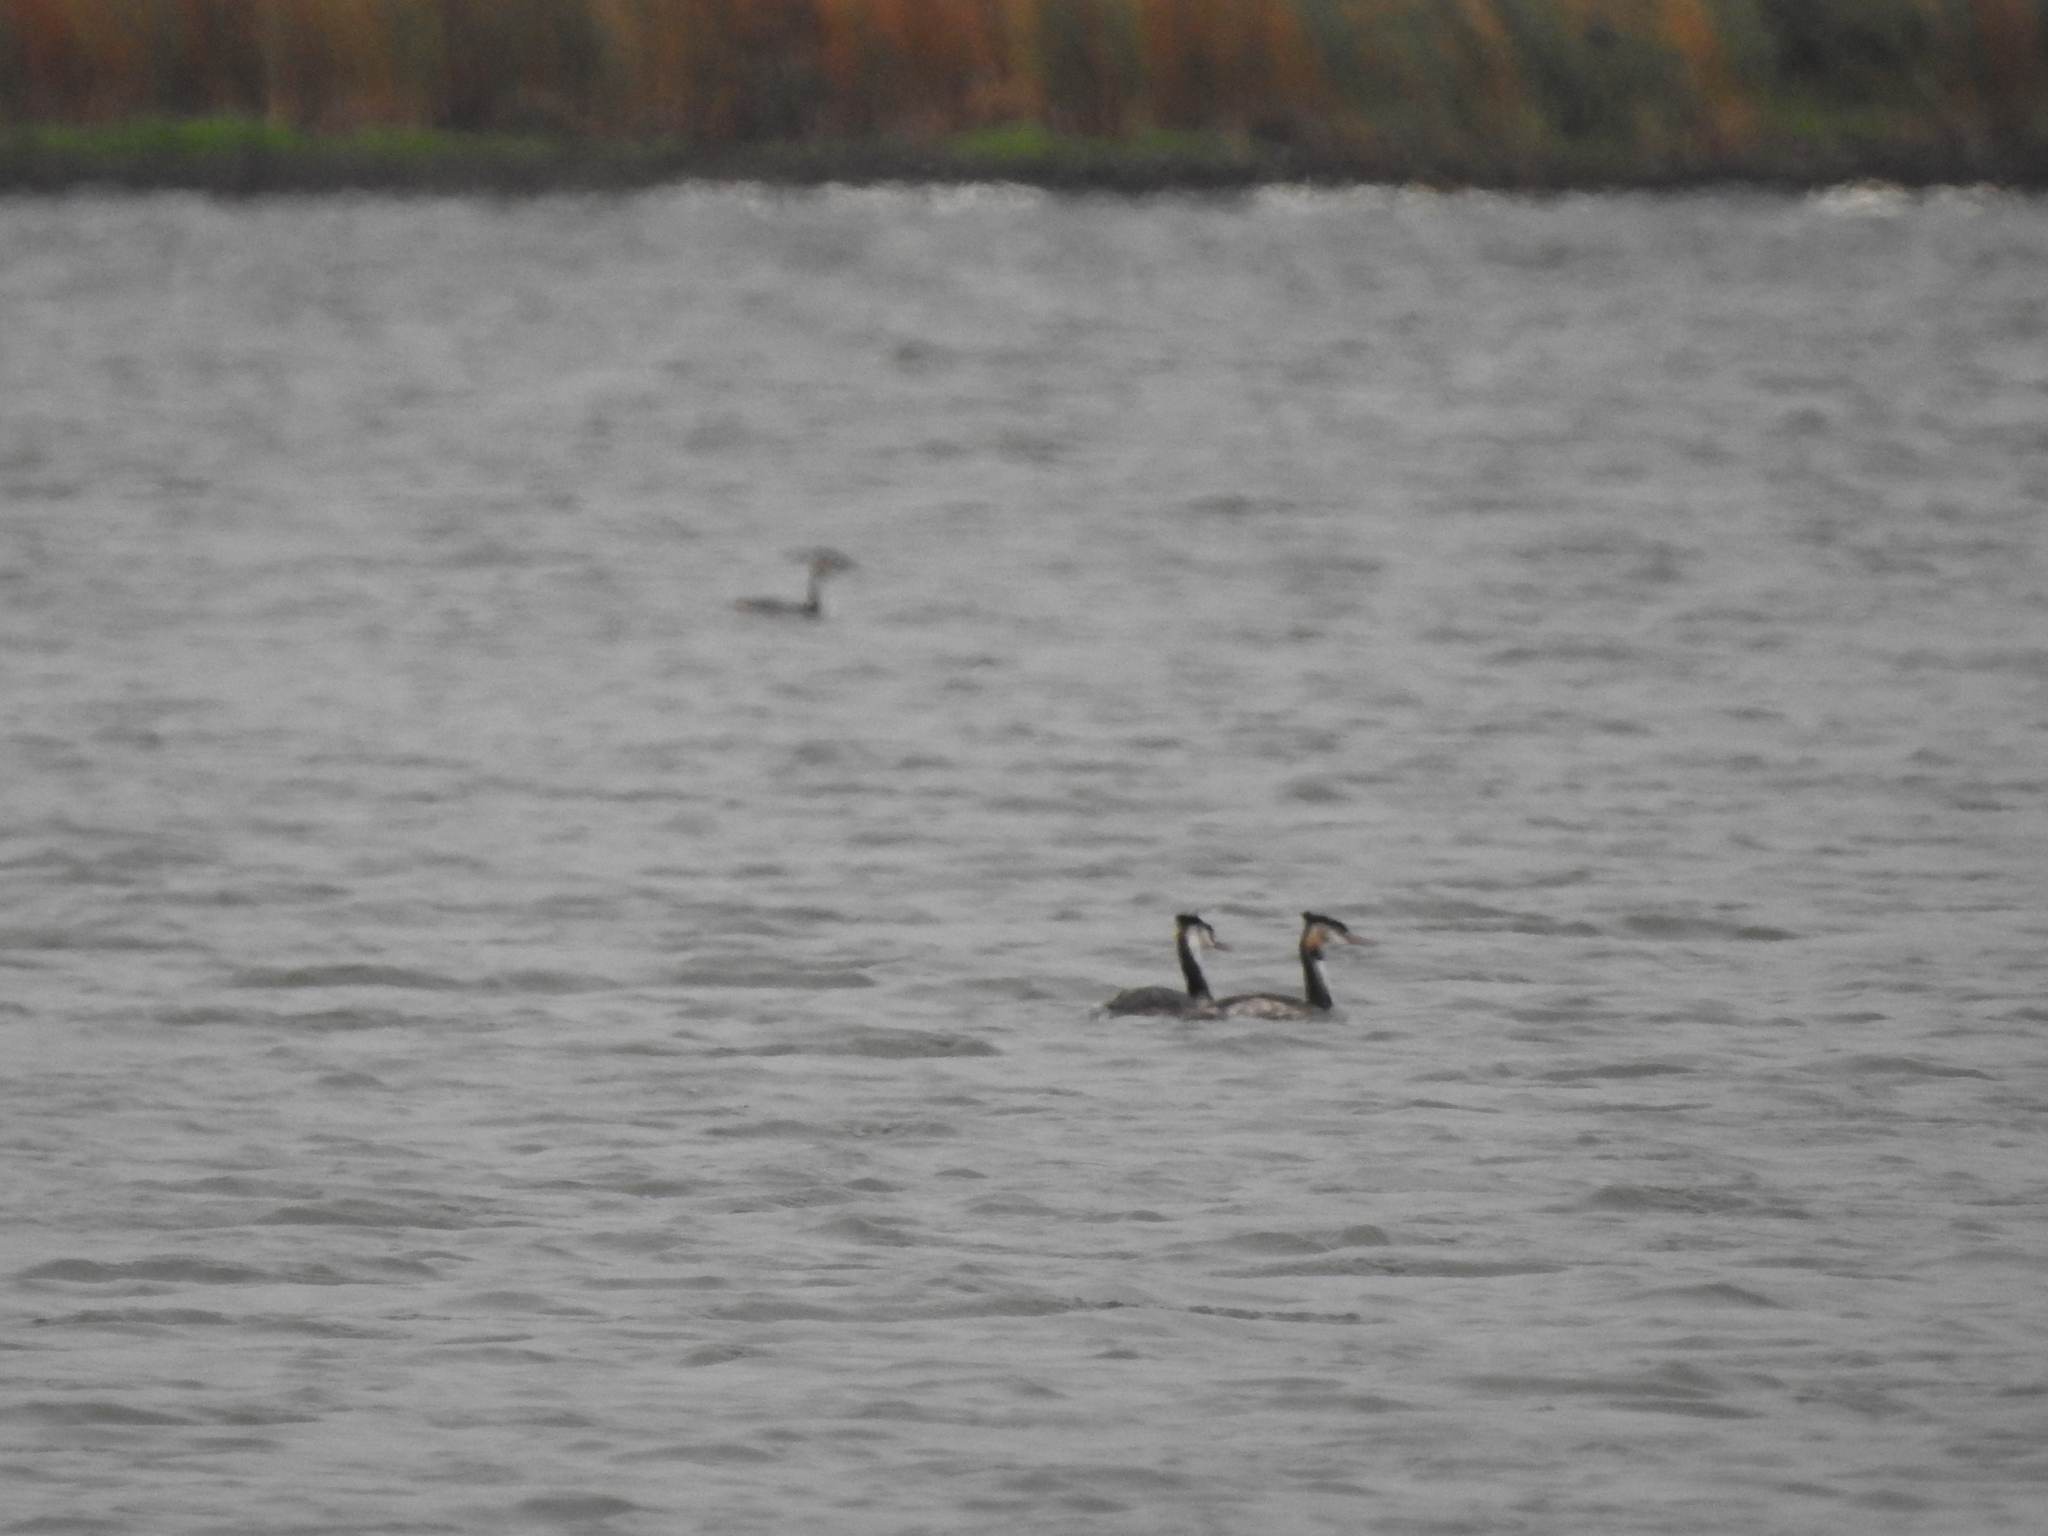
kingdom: Animalia
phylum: Chordata
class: Aves
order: Podicipediformes
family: Podicipedidae
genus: Podiceps
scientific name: Podiceps cristatus
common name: Great crested grebe
